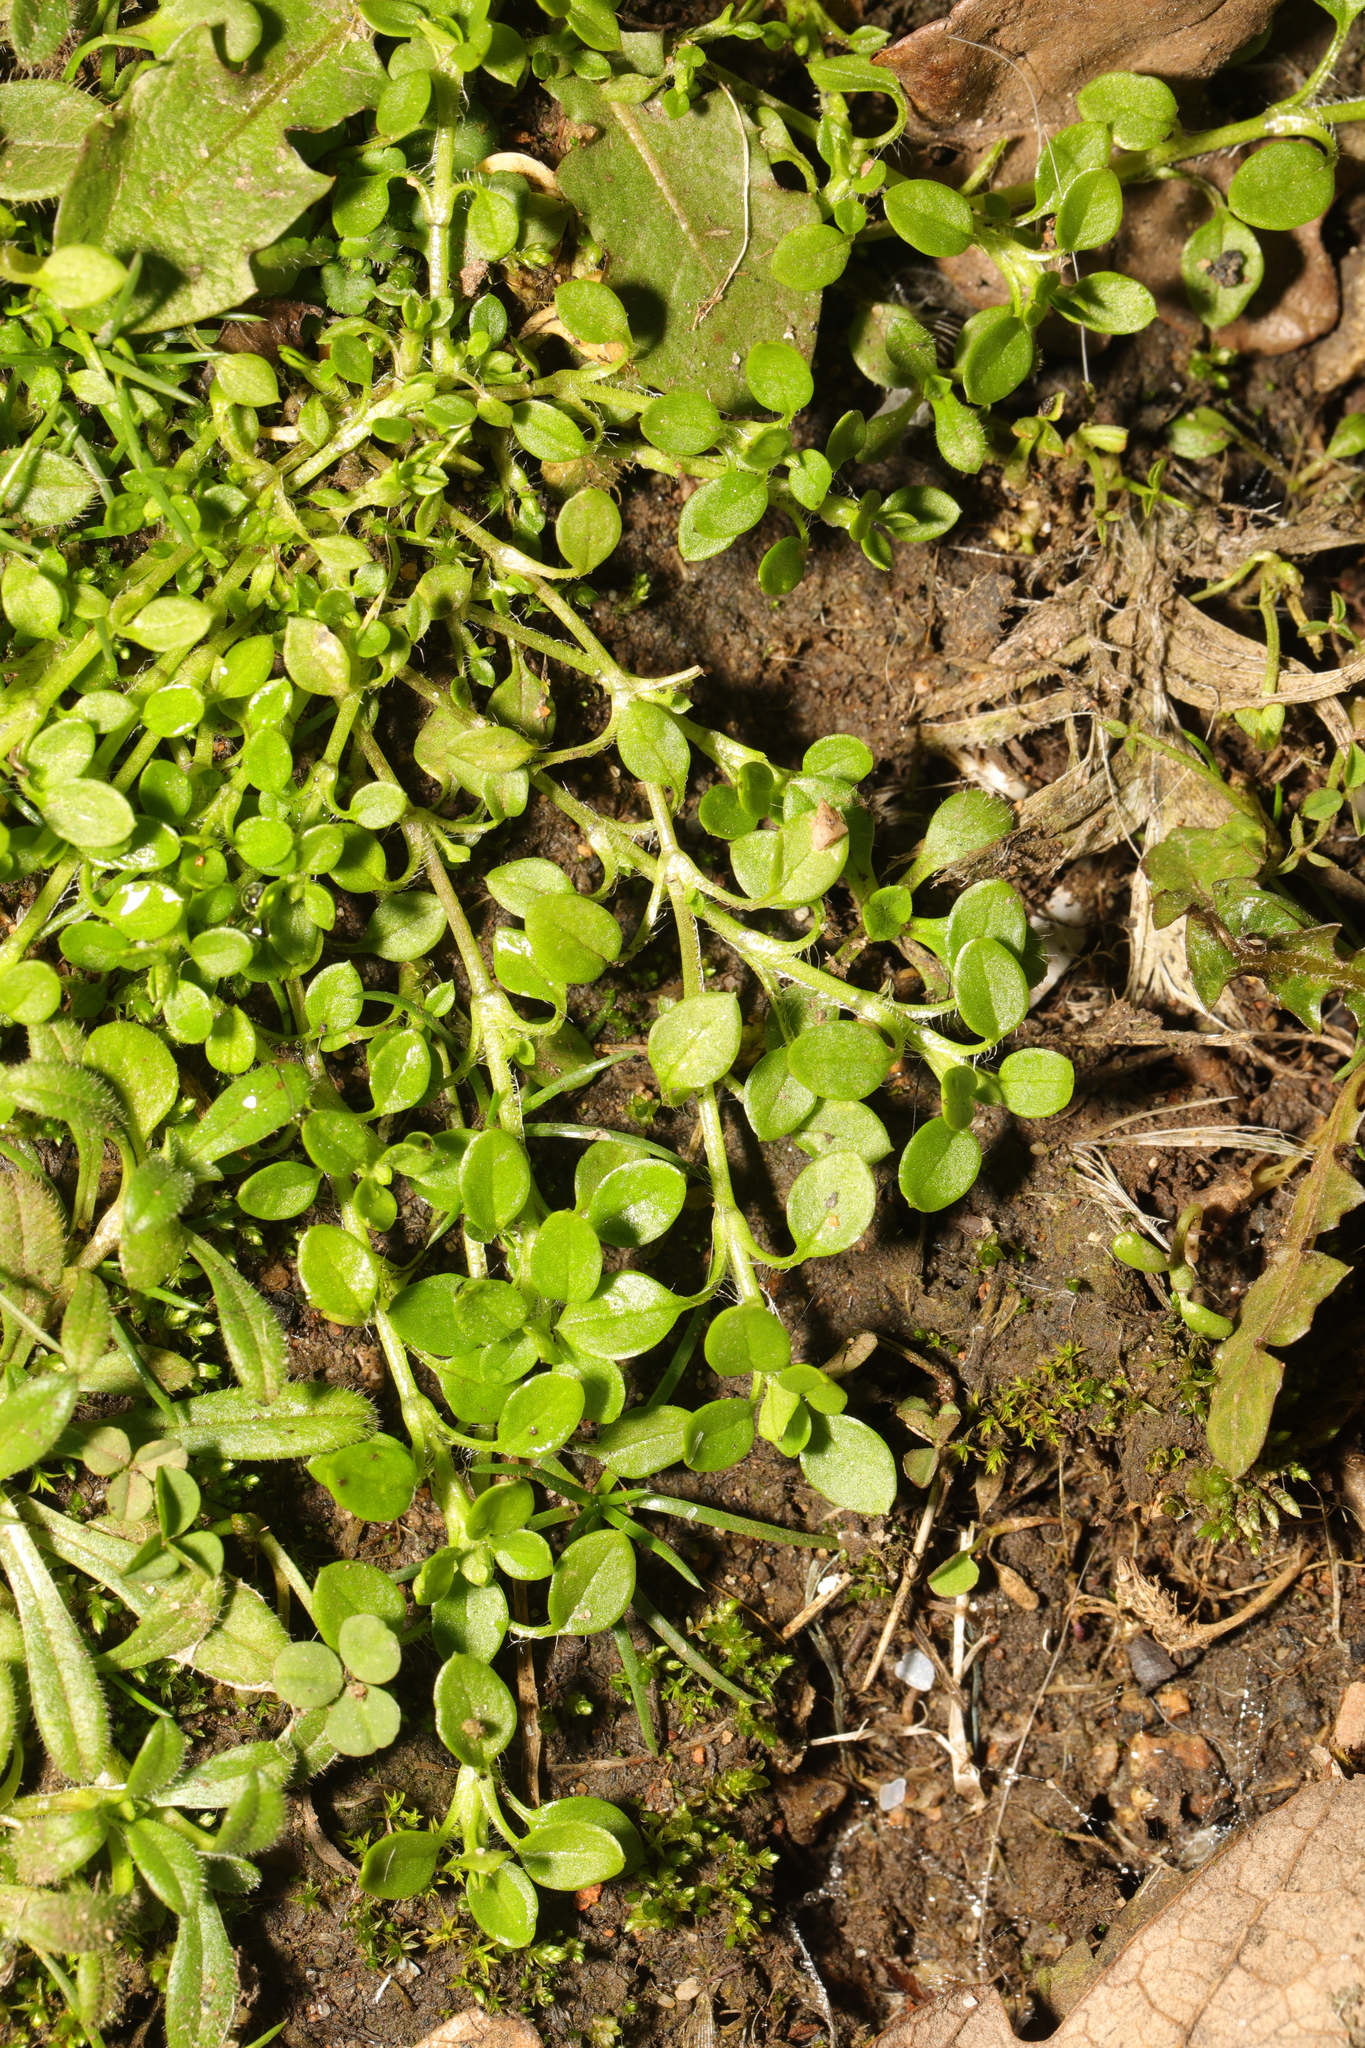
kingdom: Plantae
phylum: Tracheophyta
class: Magnoliopsida
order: Caryophyllales
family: Caryophyllaceae
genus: Stellaria
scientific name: Stellaria media
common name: Common chickweed
